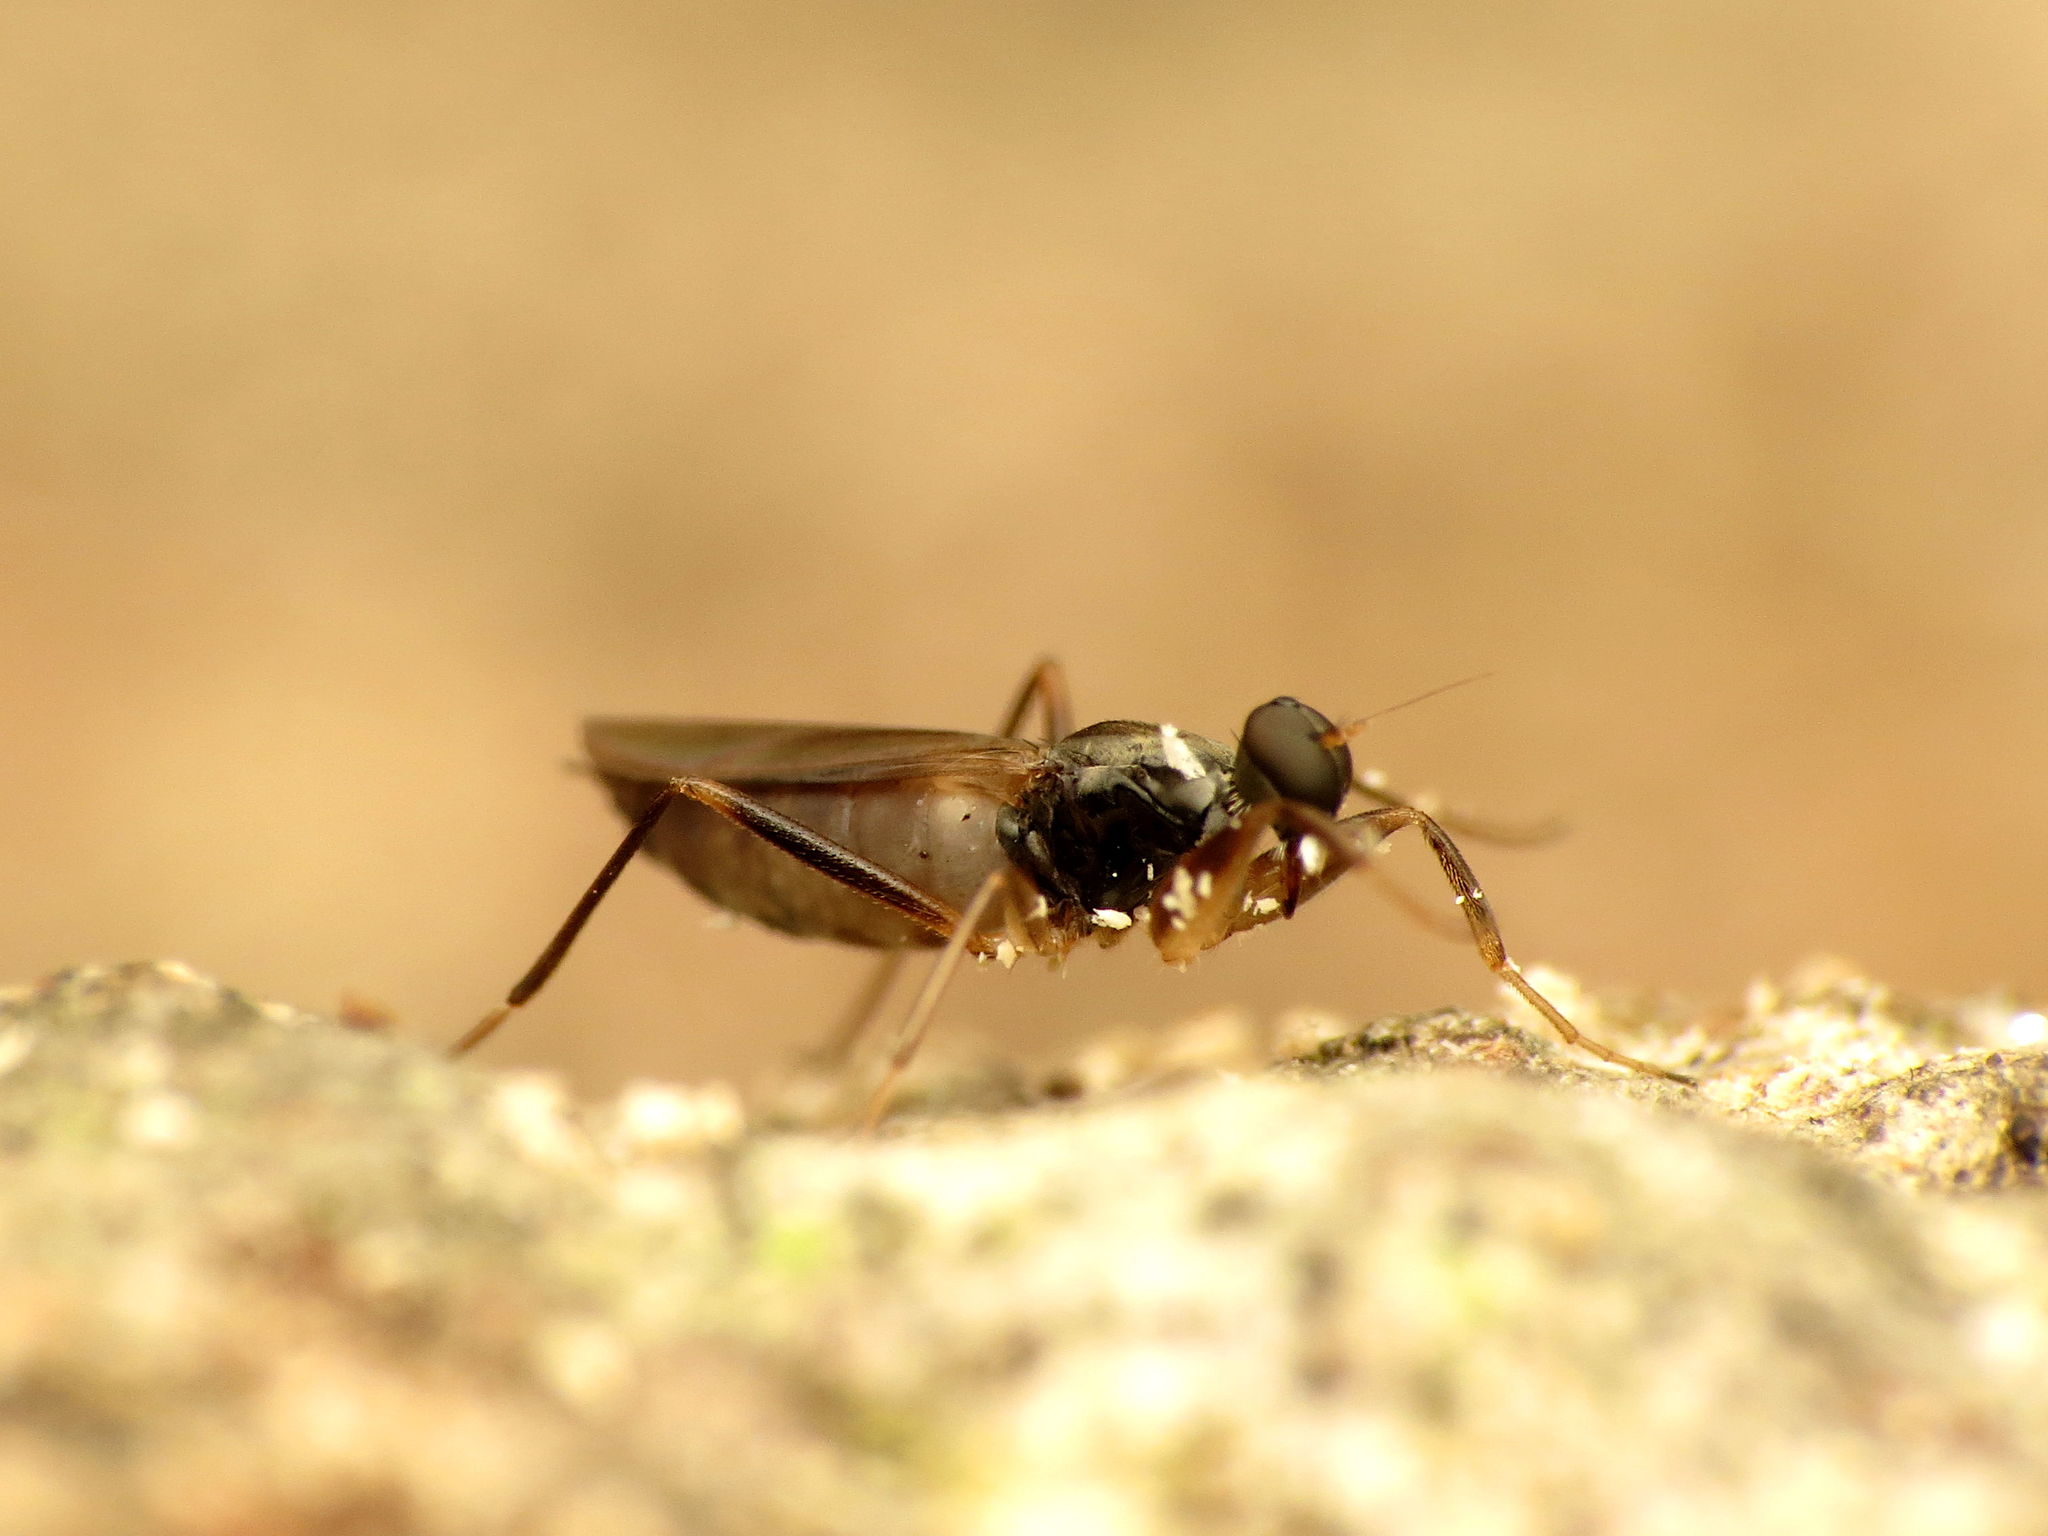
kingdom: Animalia
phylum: Arthropoda
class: Insecta
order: Diptera
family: Hybotidae
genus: Tachypeza
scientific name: Tachypeza
